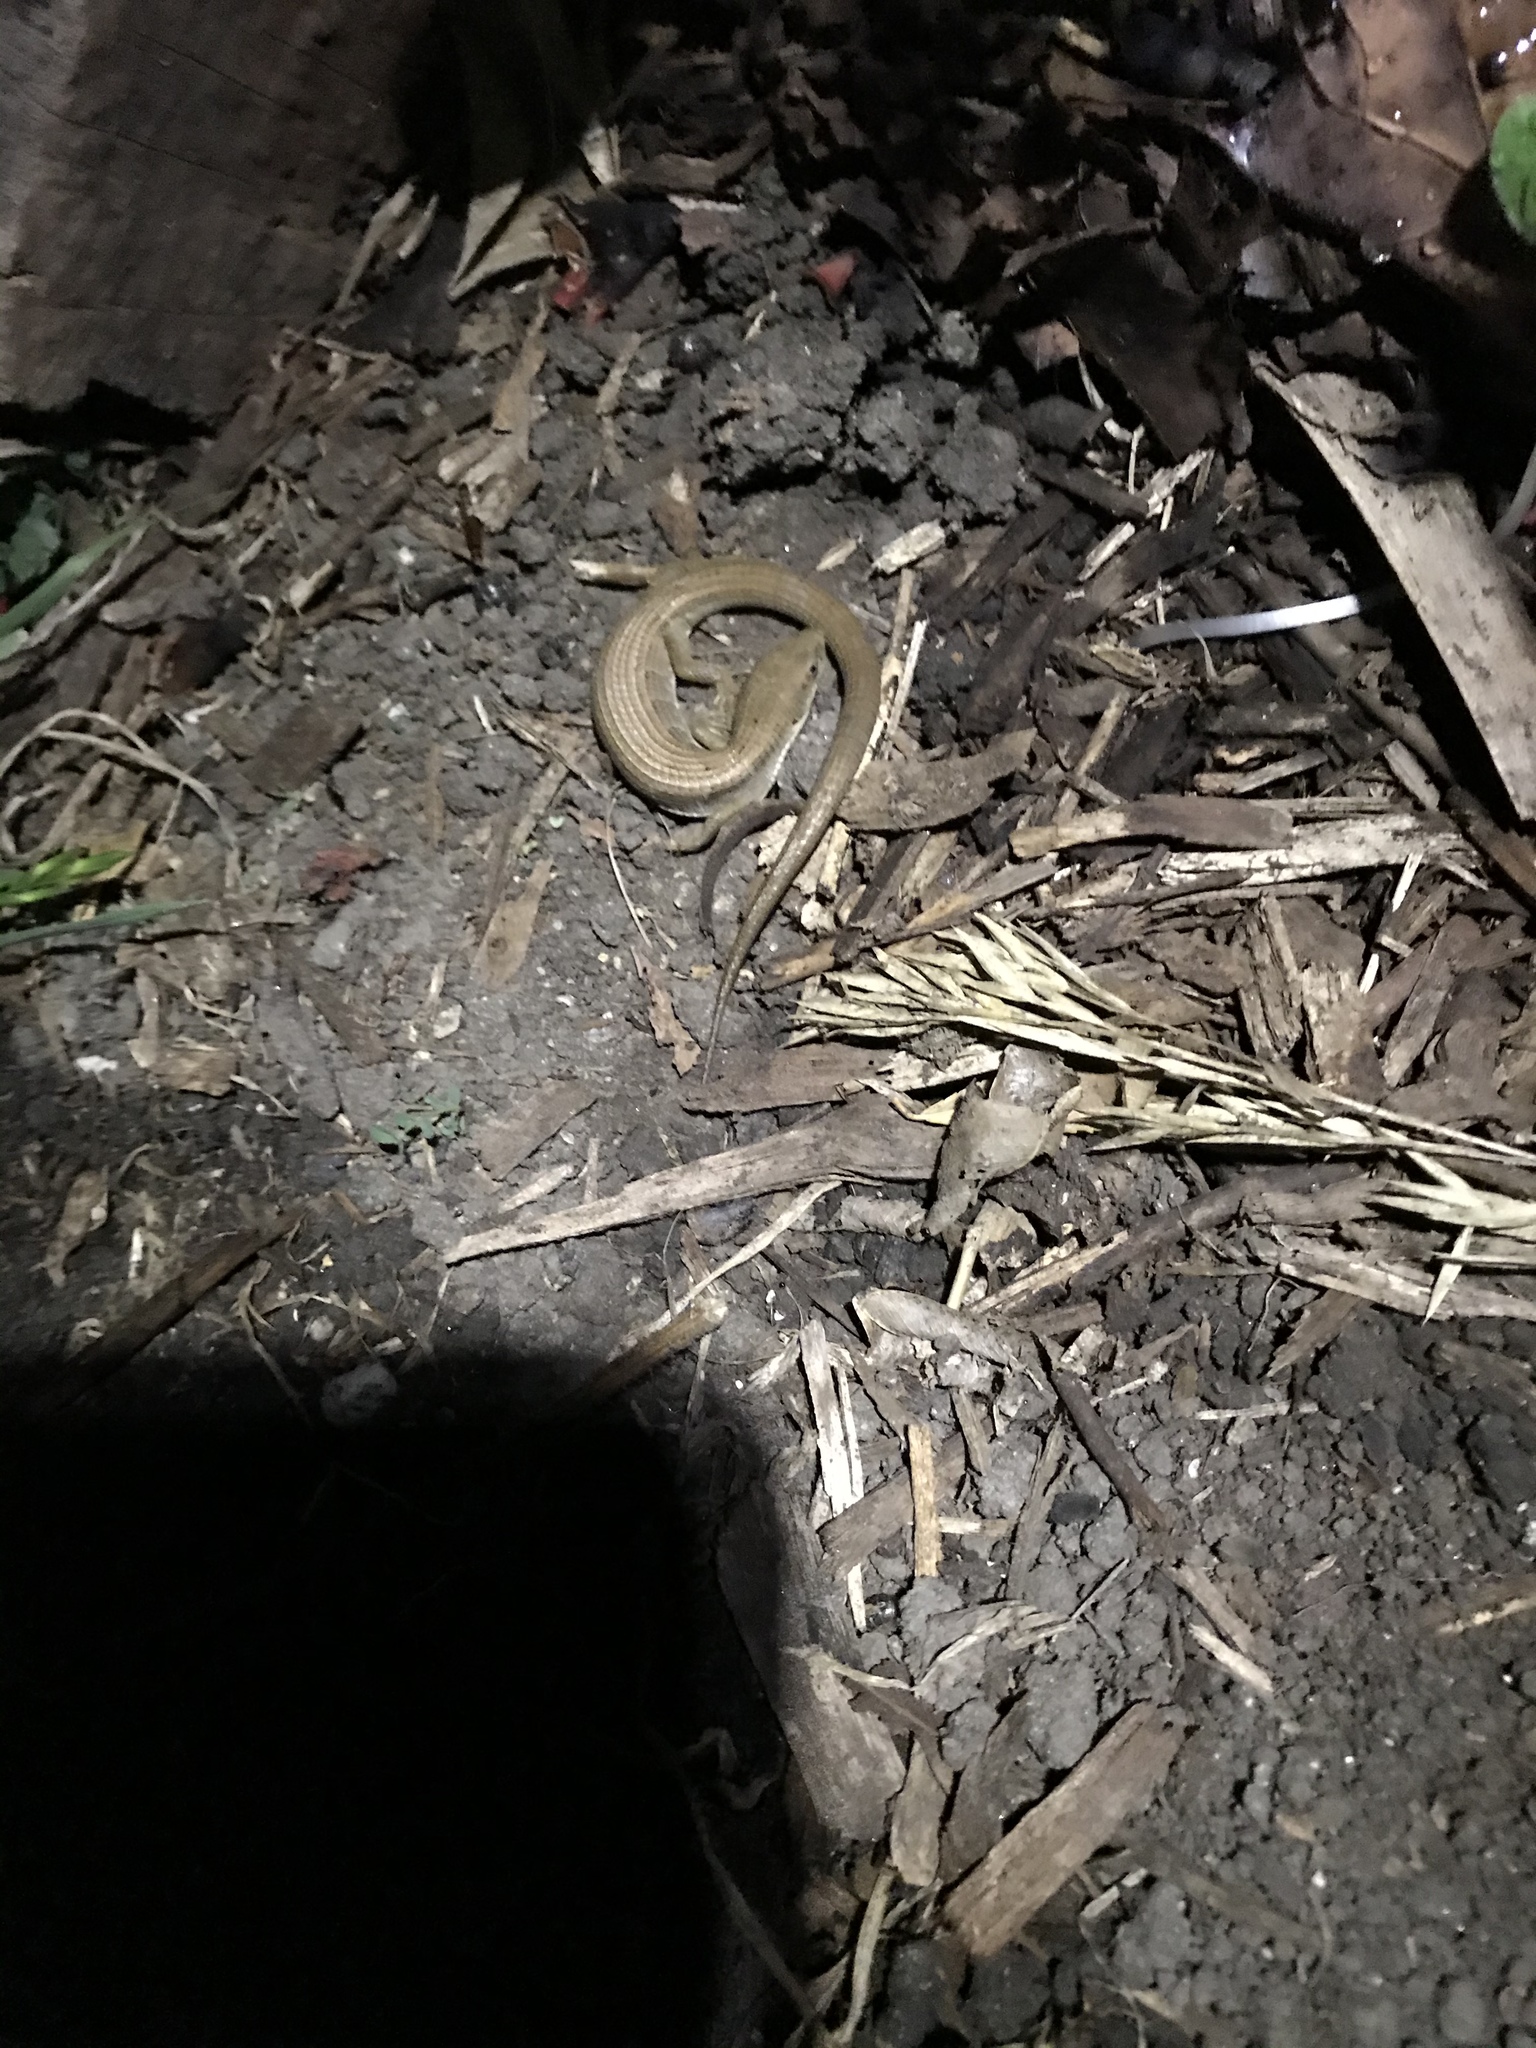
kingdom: Animalia
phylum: Chordata
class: Squamata
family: Anguidae
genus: Elgaria
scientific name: Elgaria multicarinata
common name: Southern alligator lizard
